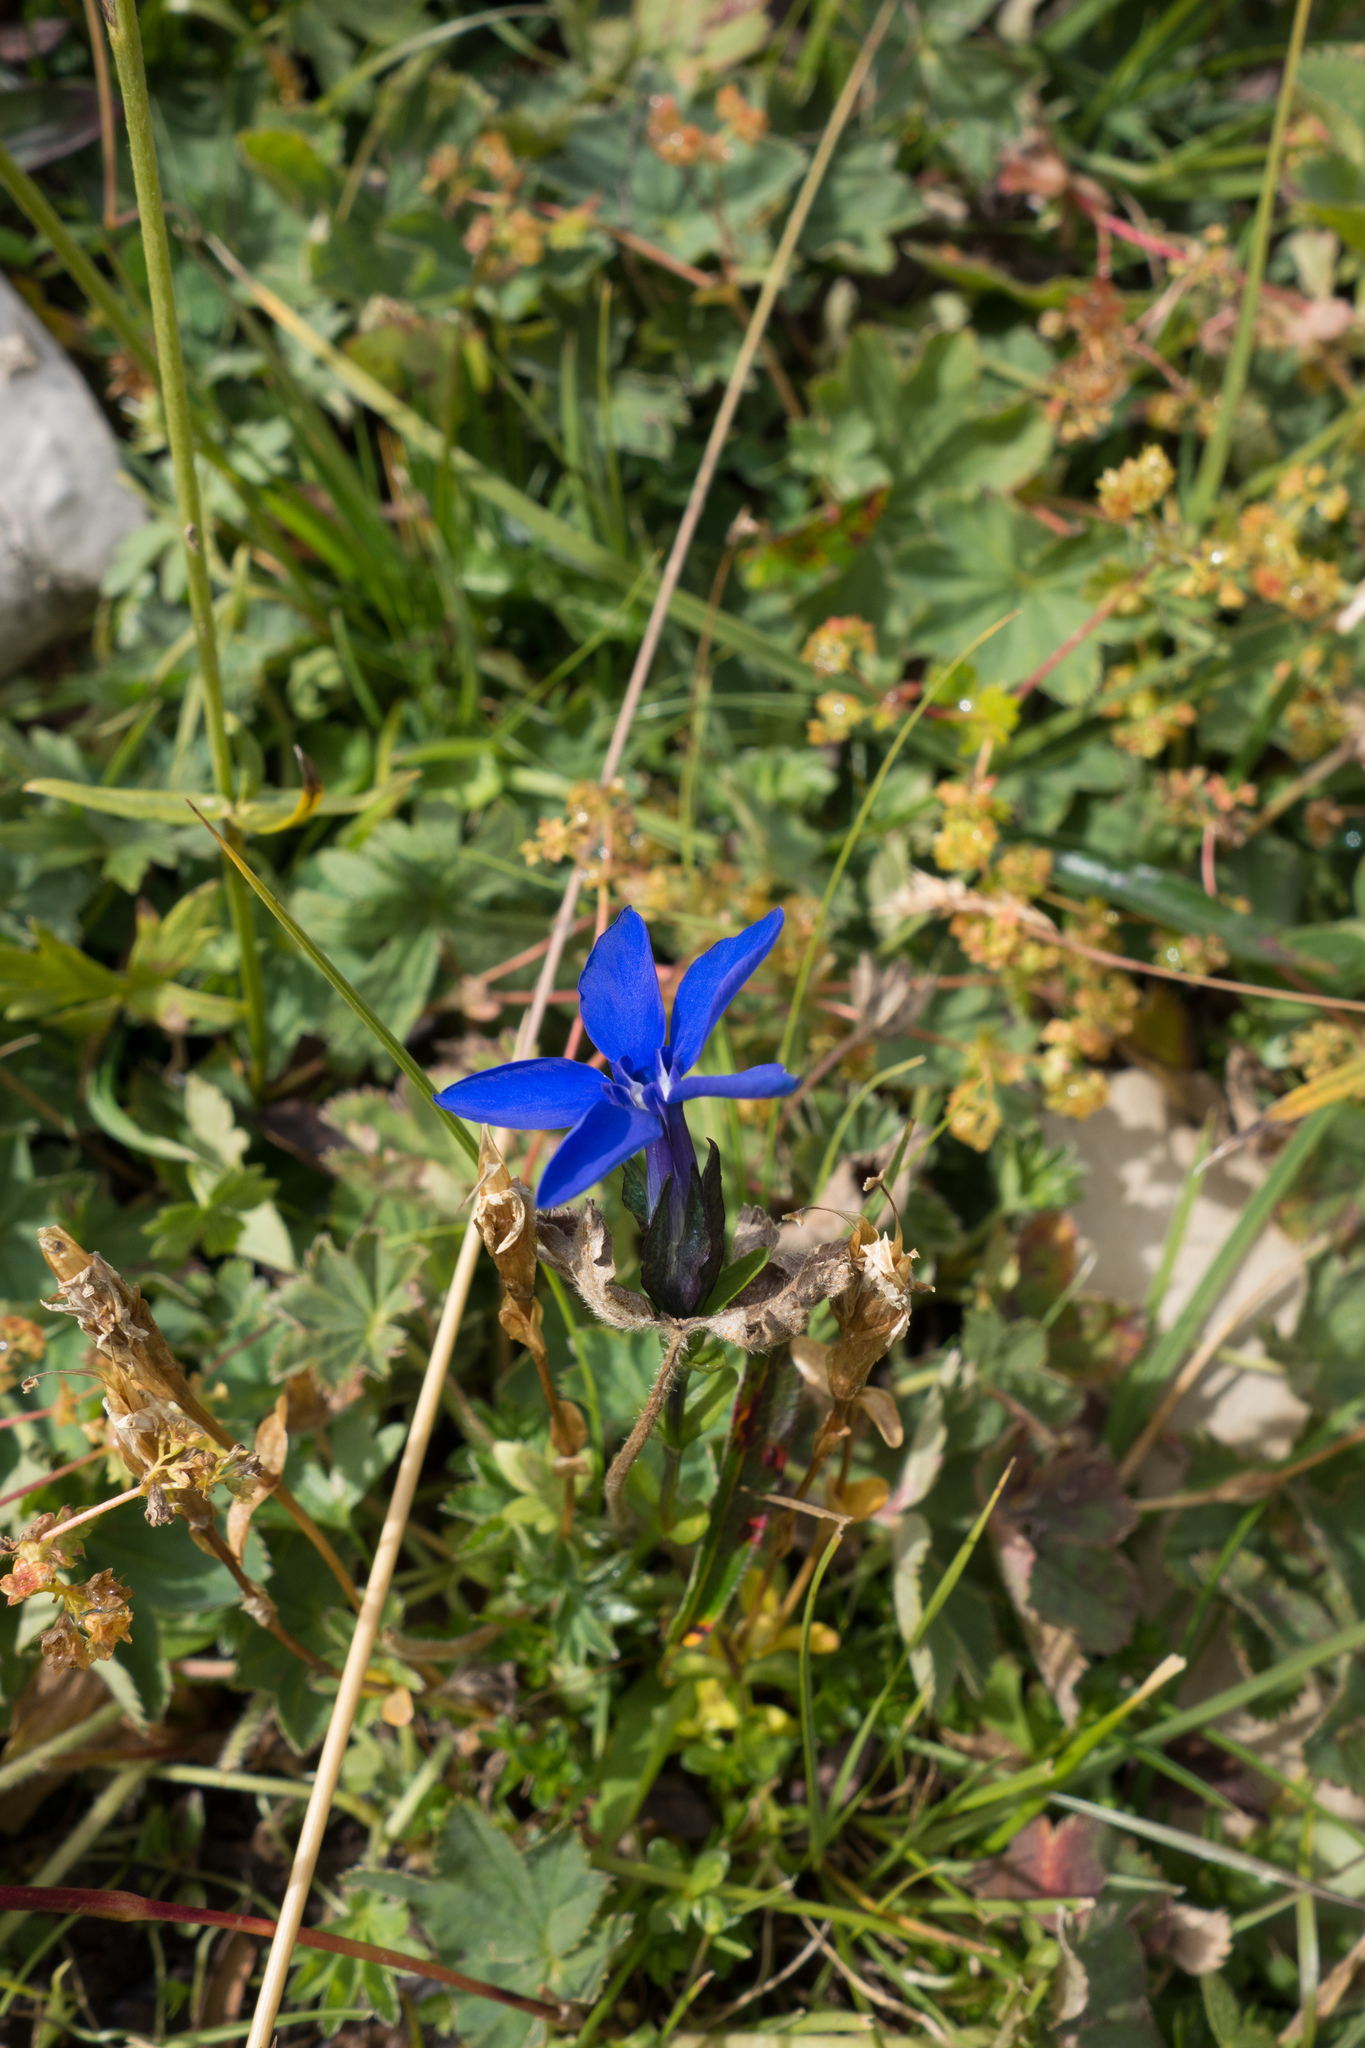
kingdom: Plantae
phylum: Tracheophyta
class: Magnoliopsida
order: Gentianales
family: Gentianaceae
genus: Gentiana
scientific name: Gentiana bavarica
